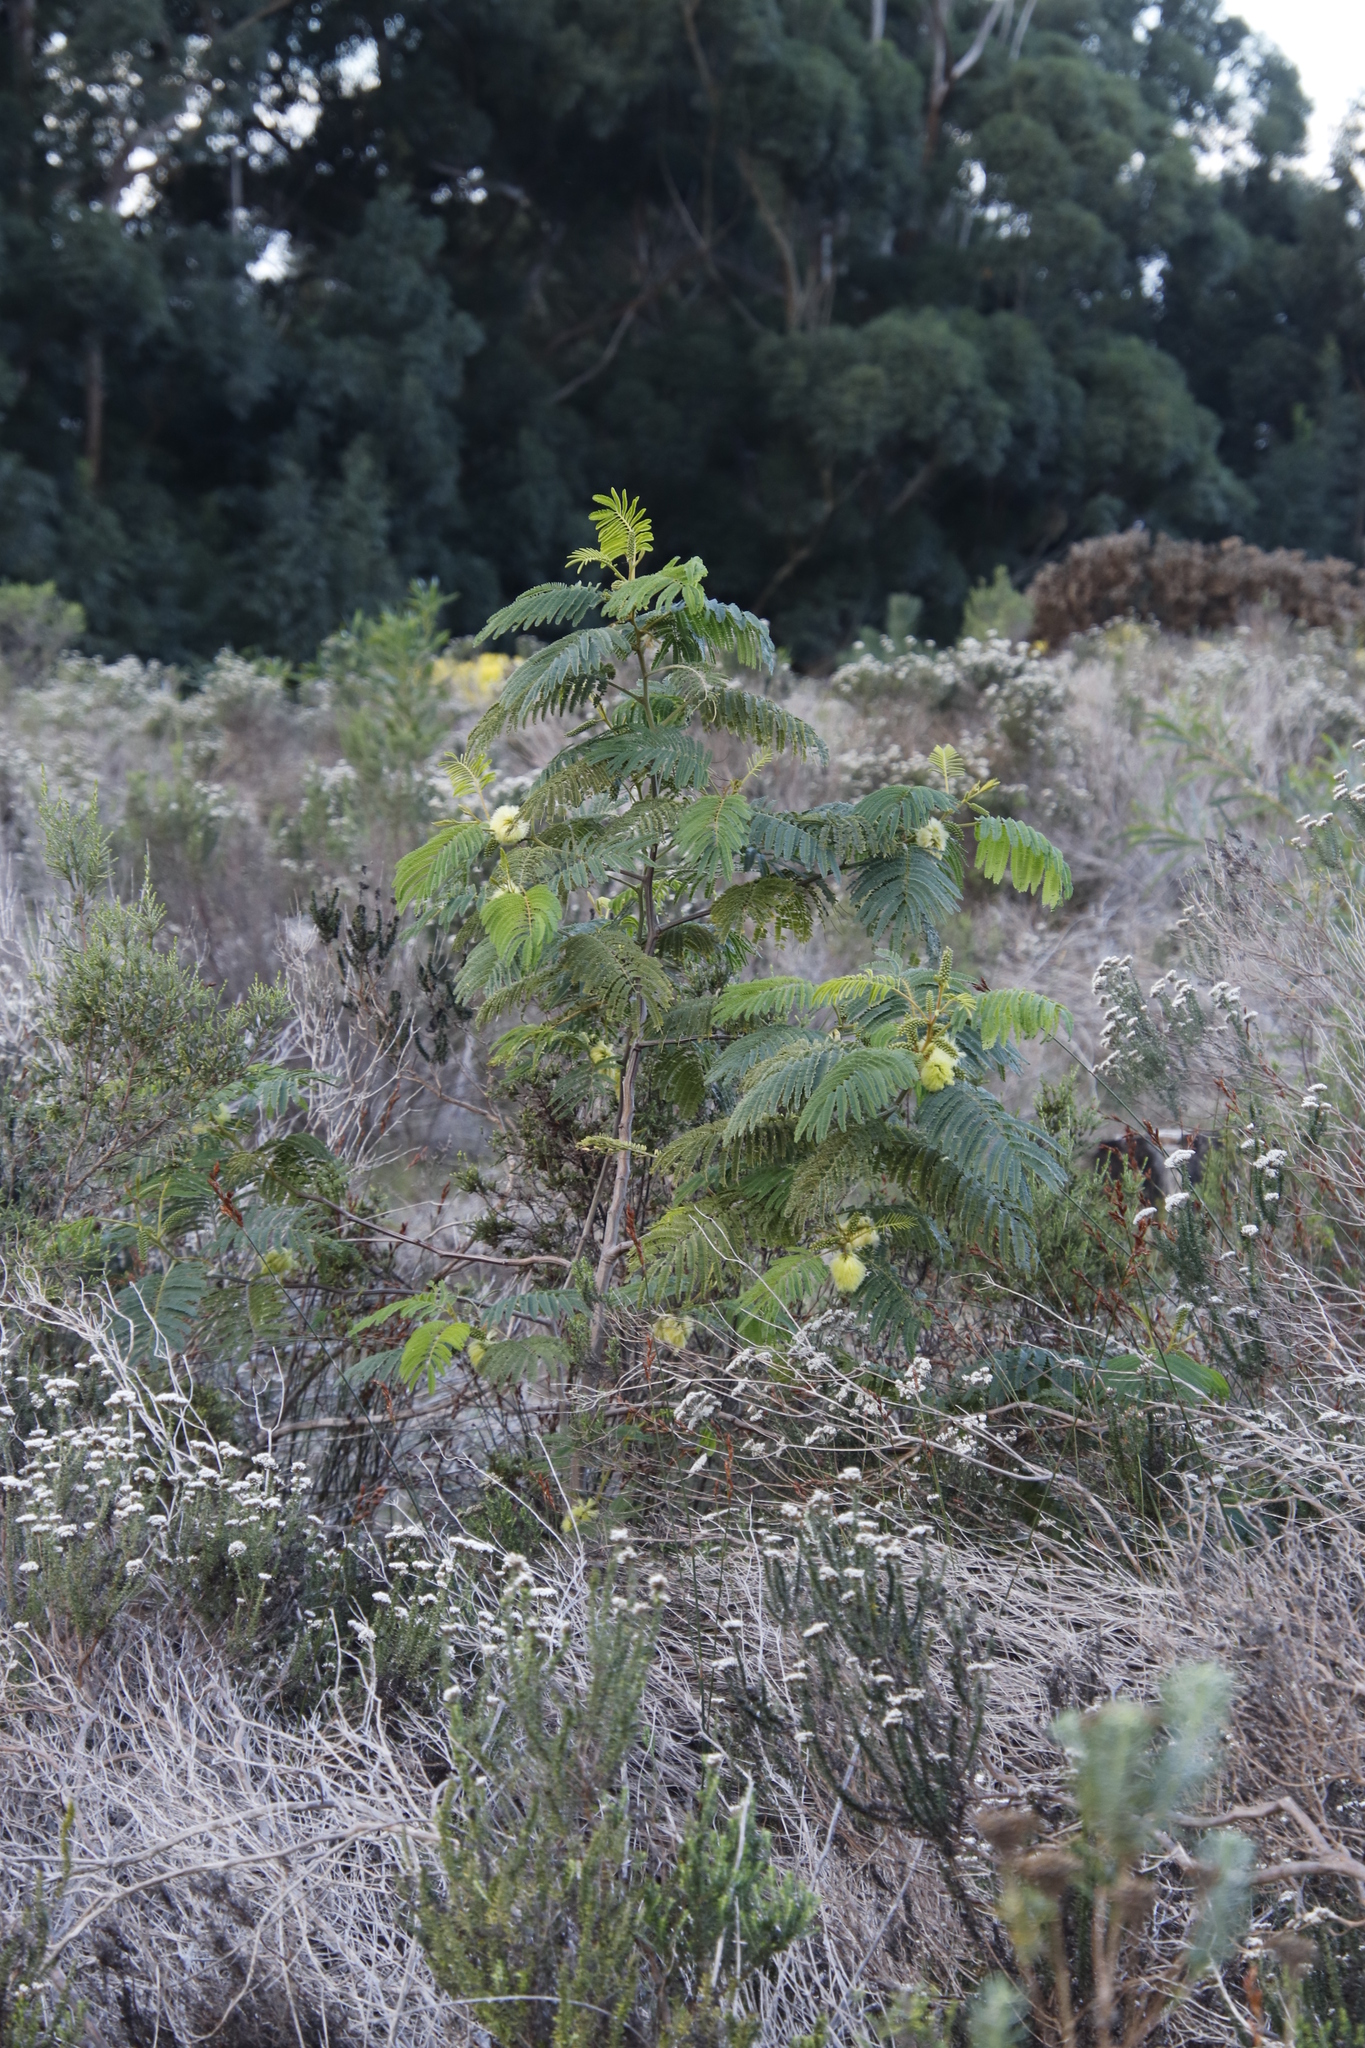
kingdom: Plantae
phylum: Tracheophyta
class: Magnoliopsida
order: Fabales
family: Fabaceae
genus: Paraserianthes
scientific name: Paraserianthes lophantha
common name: Plume albizia
